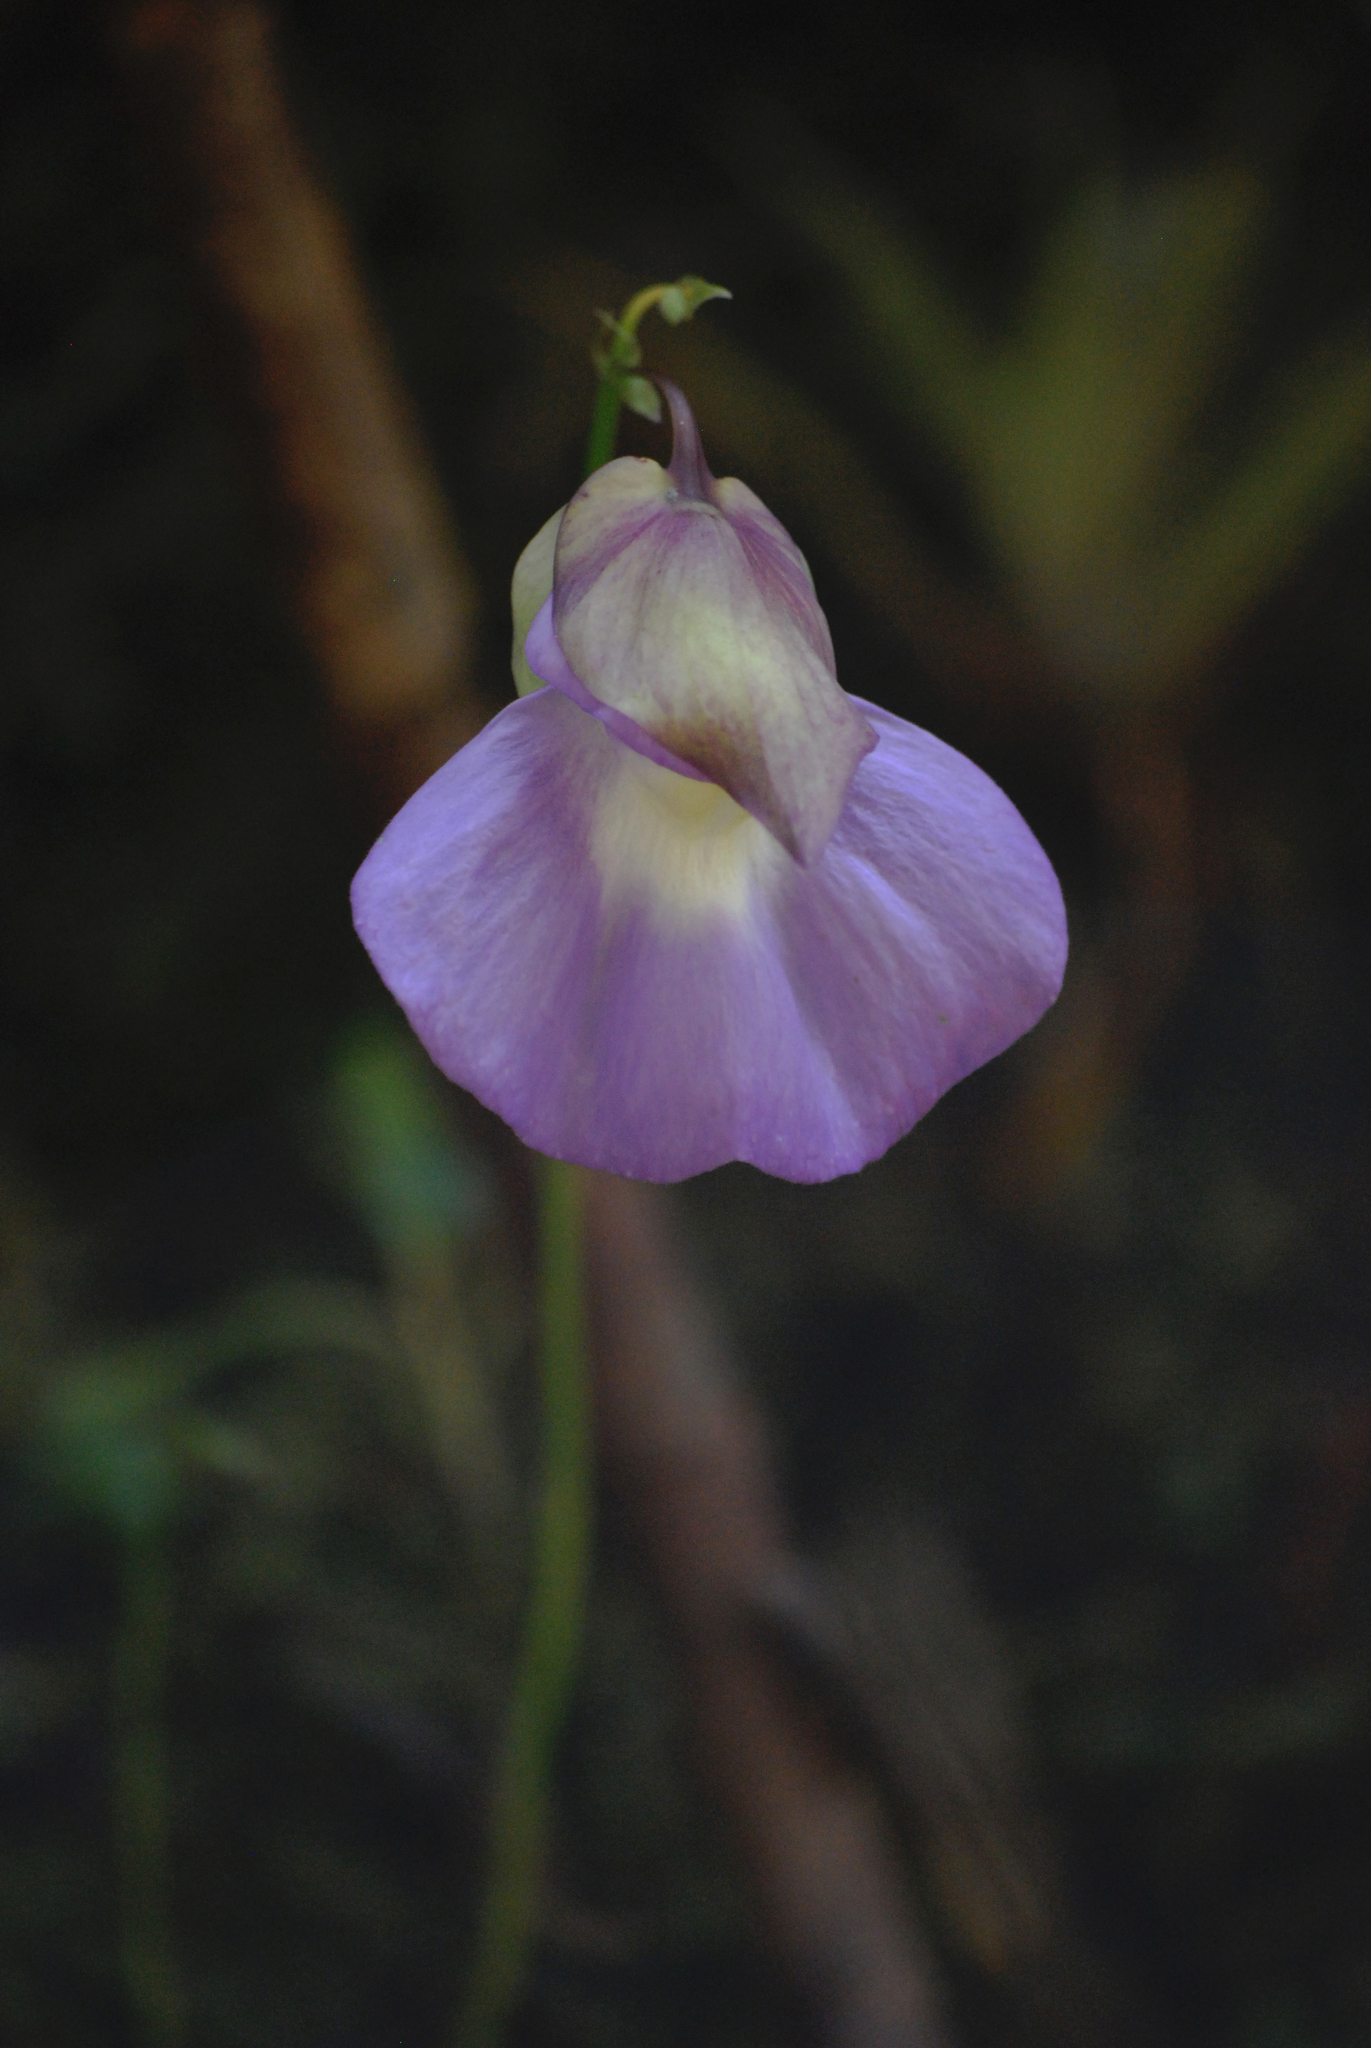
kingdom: Plantae
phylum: Tracheophyta
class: Magnoliopsida
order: Lamiales
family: Lentibulariaceae
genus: Utricularia
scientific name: Utricularia unifolia
